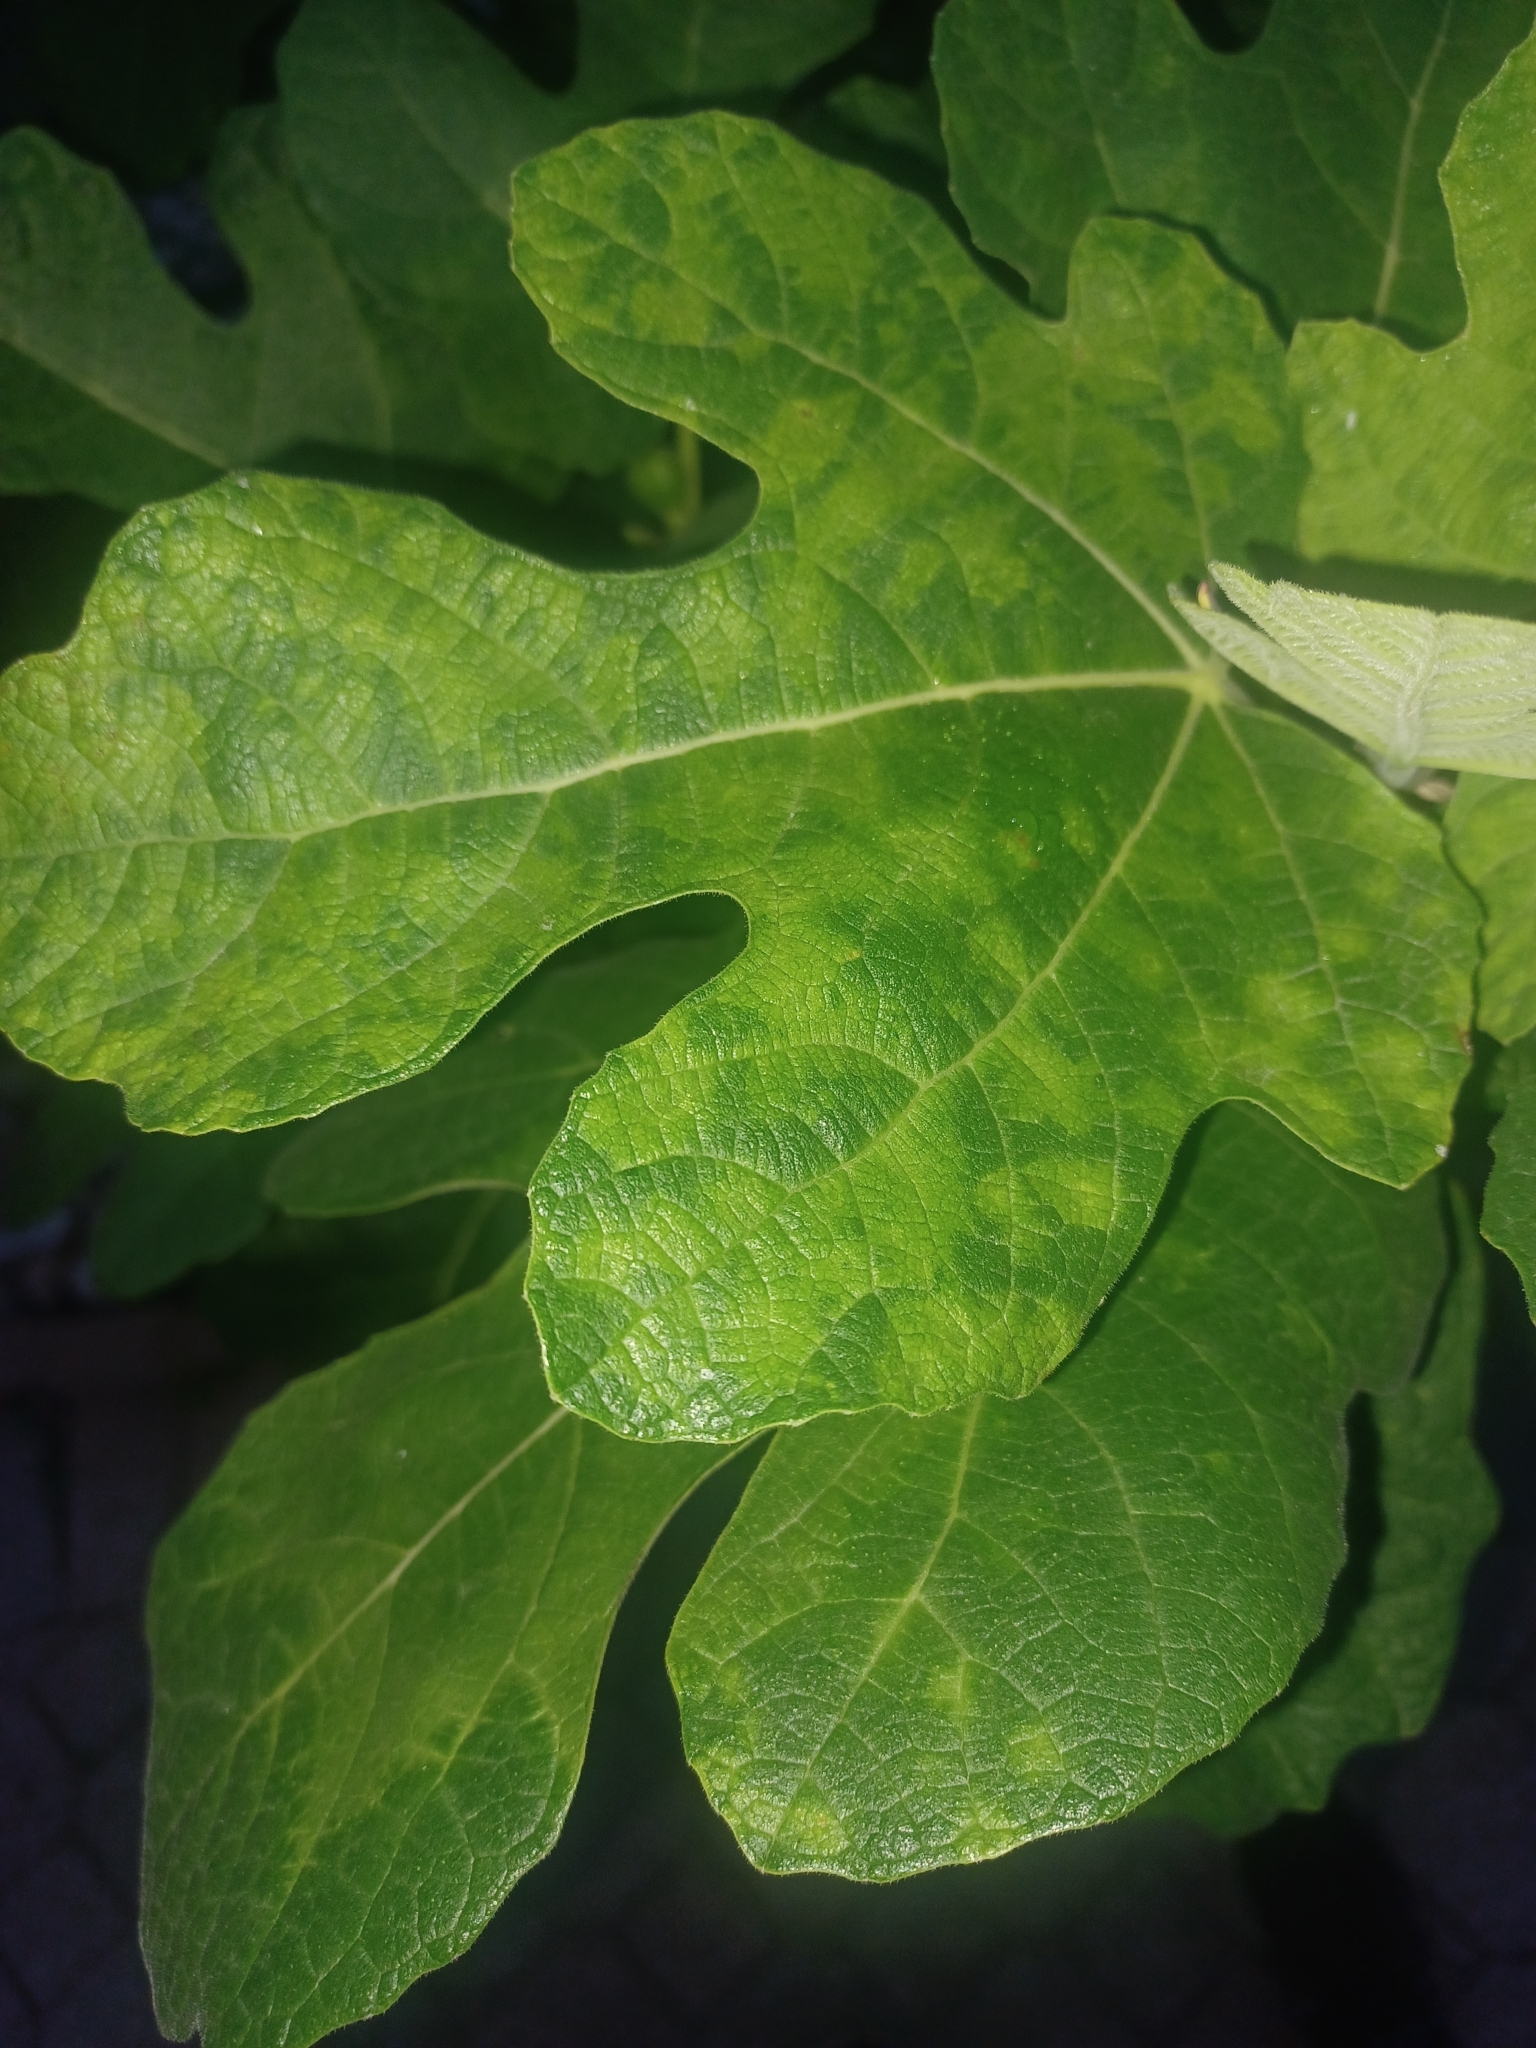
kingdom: Viruses
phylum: Negarnaviricota
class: Ellioviricetes
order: Bunyavirales
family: Fimoviridae
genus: Emaravirus
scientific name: Emaravirus fici
